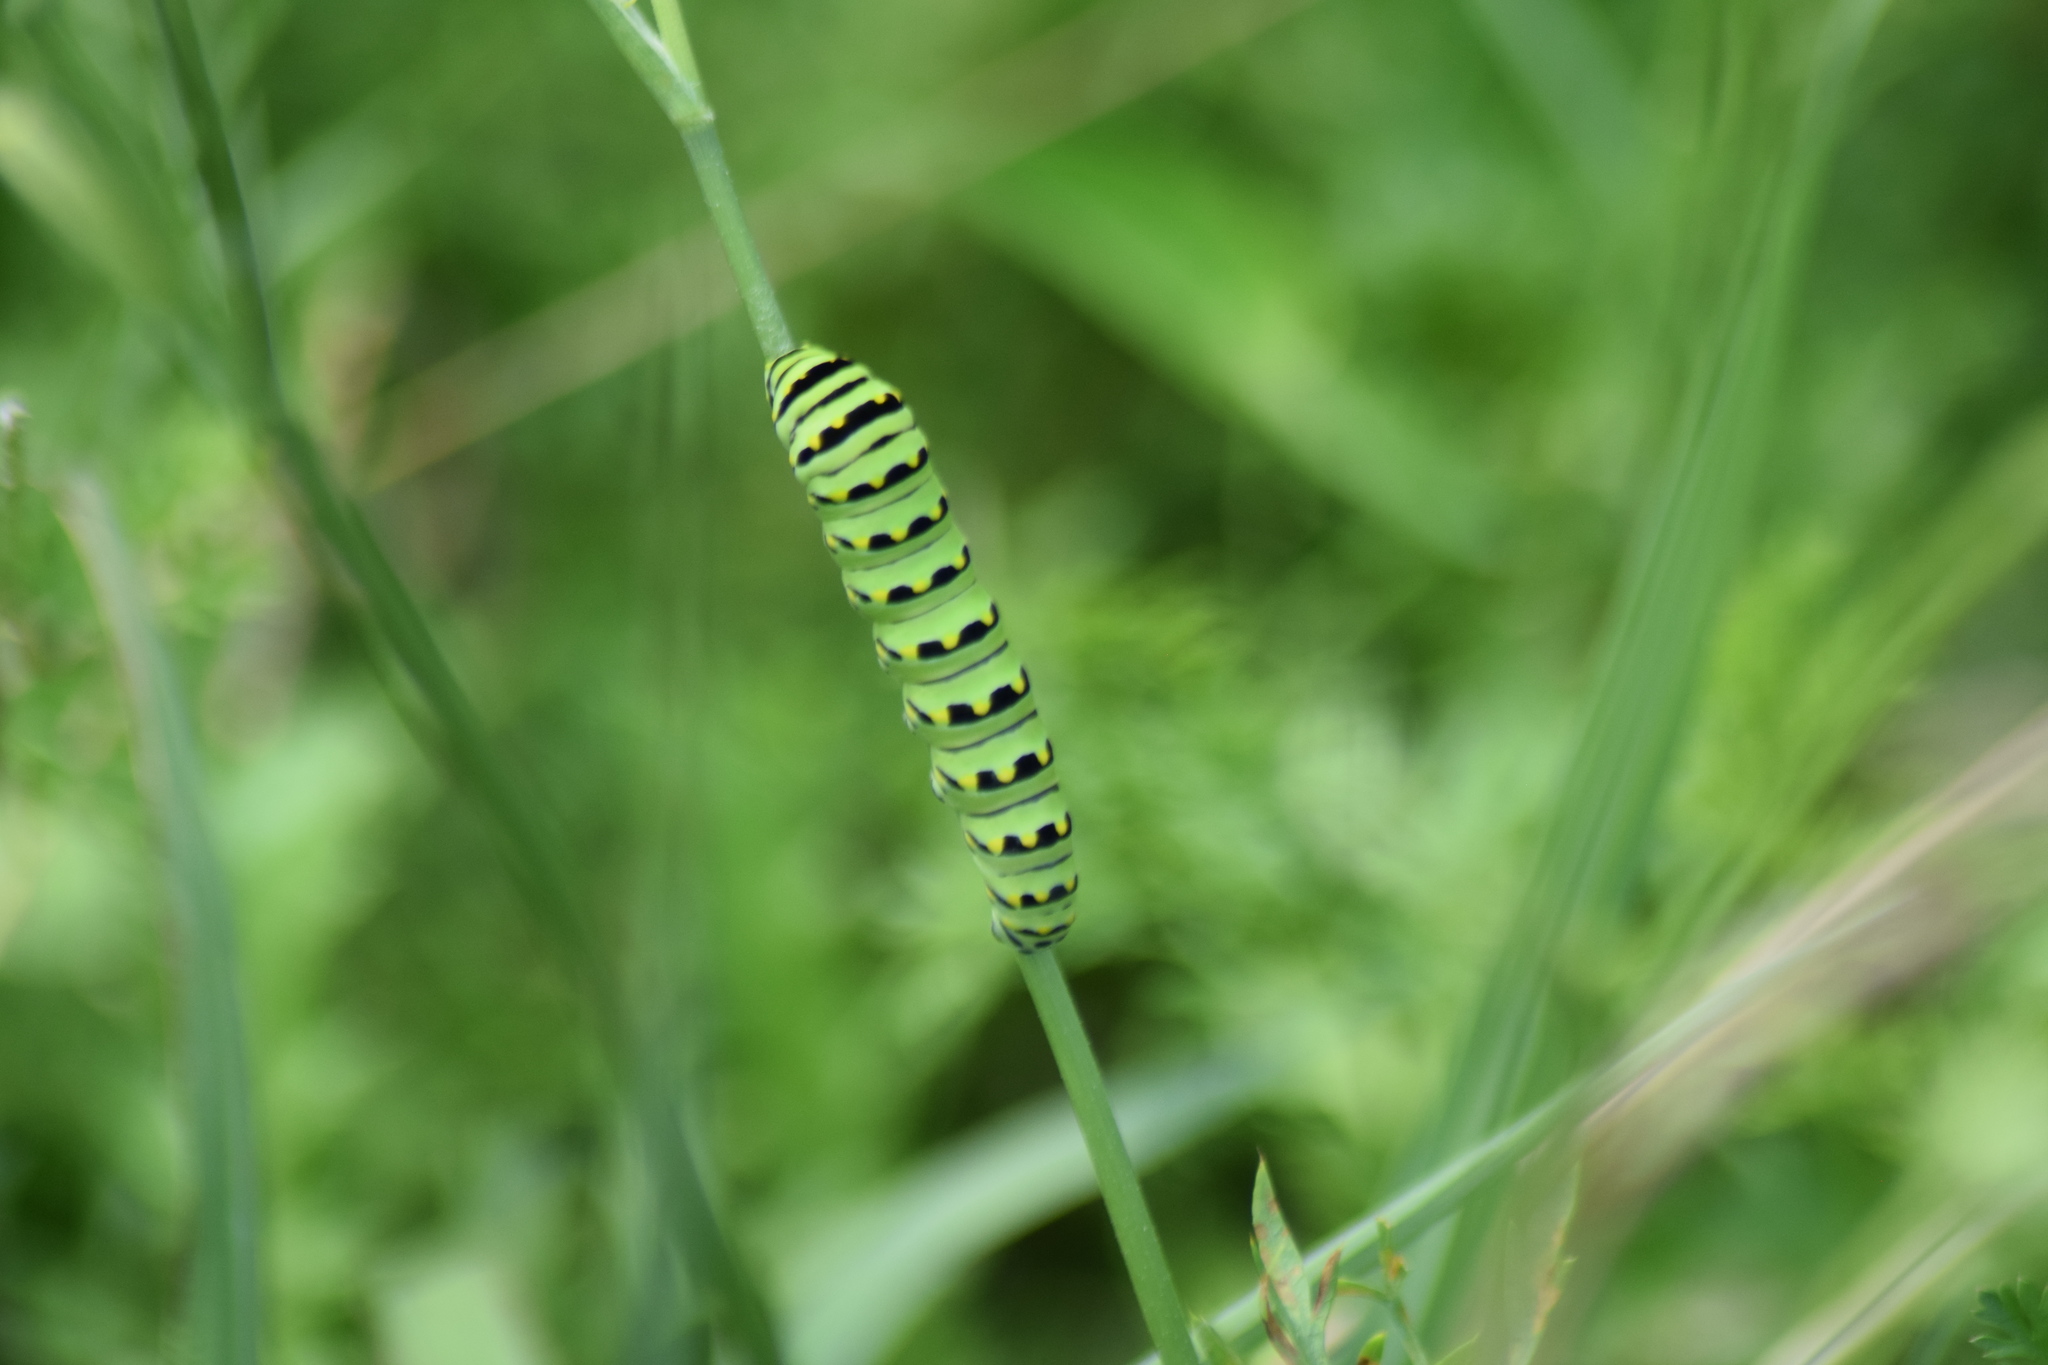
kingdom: Animalia
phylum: Arthropoda
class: Insecta
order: Lepidoptera
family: Papilionidae
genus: Papilio
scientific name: Papilio polyxenes
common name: Black swallowtail
